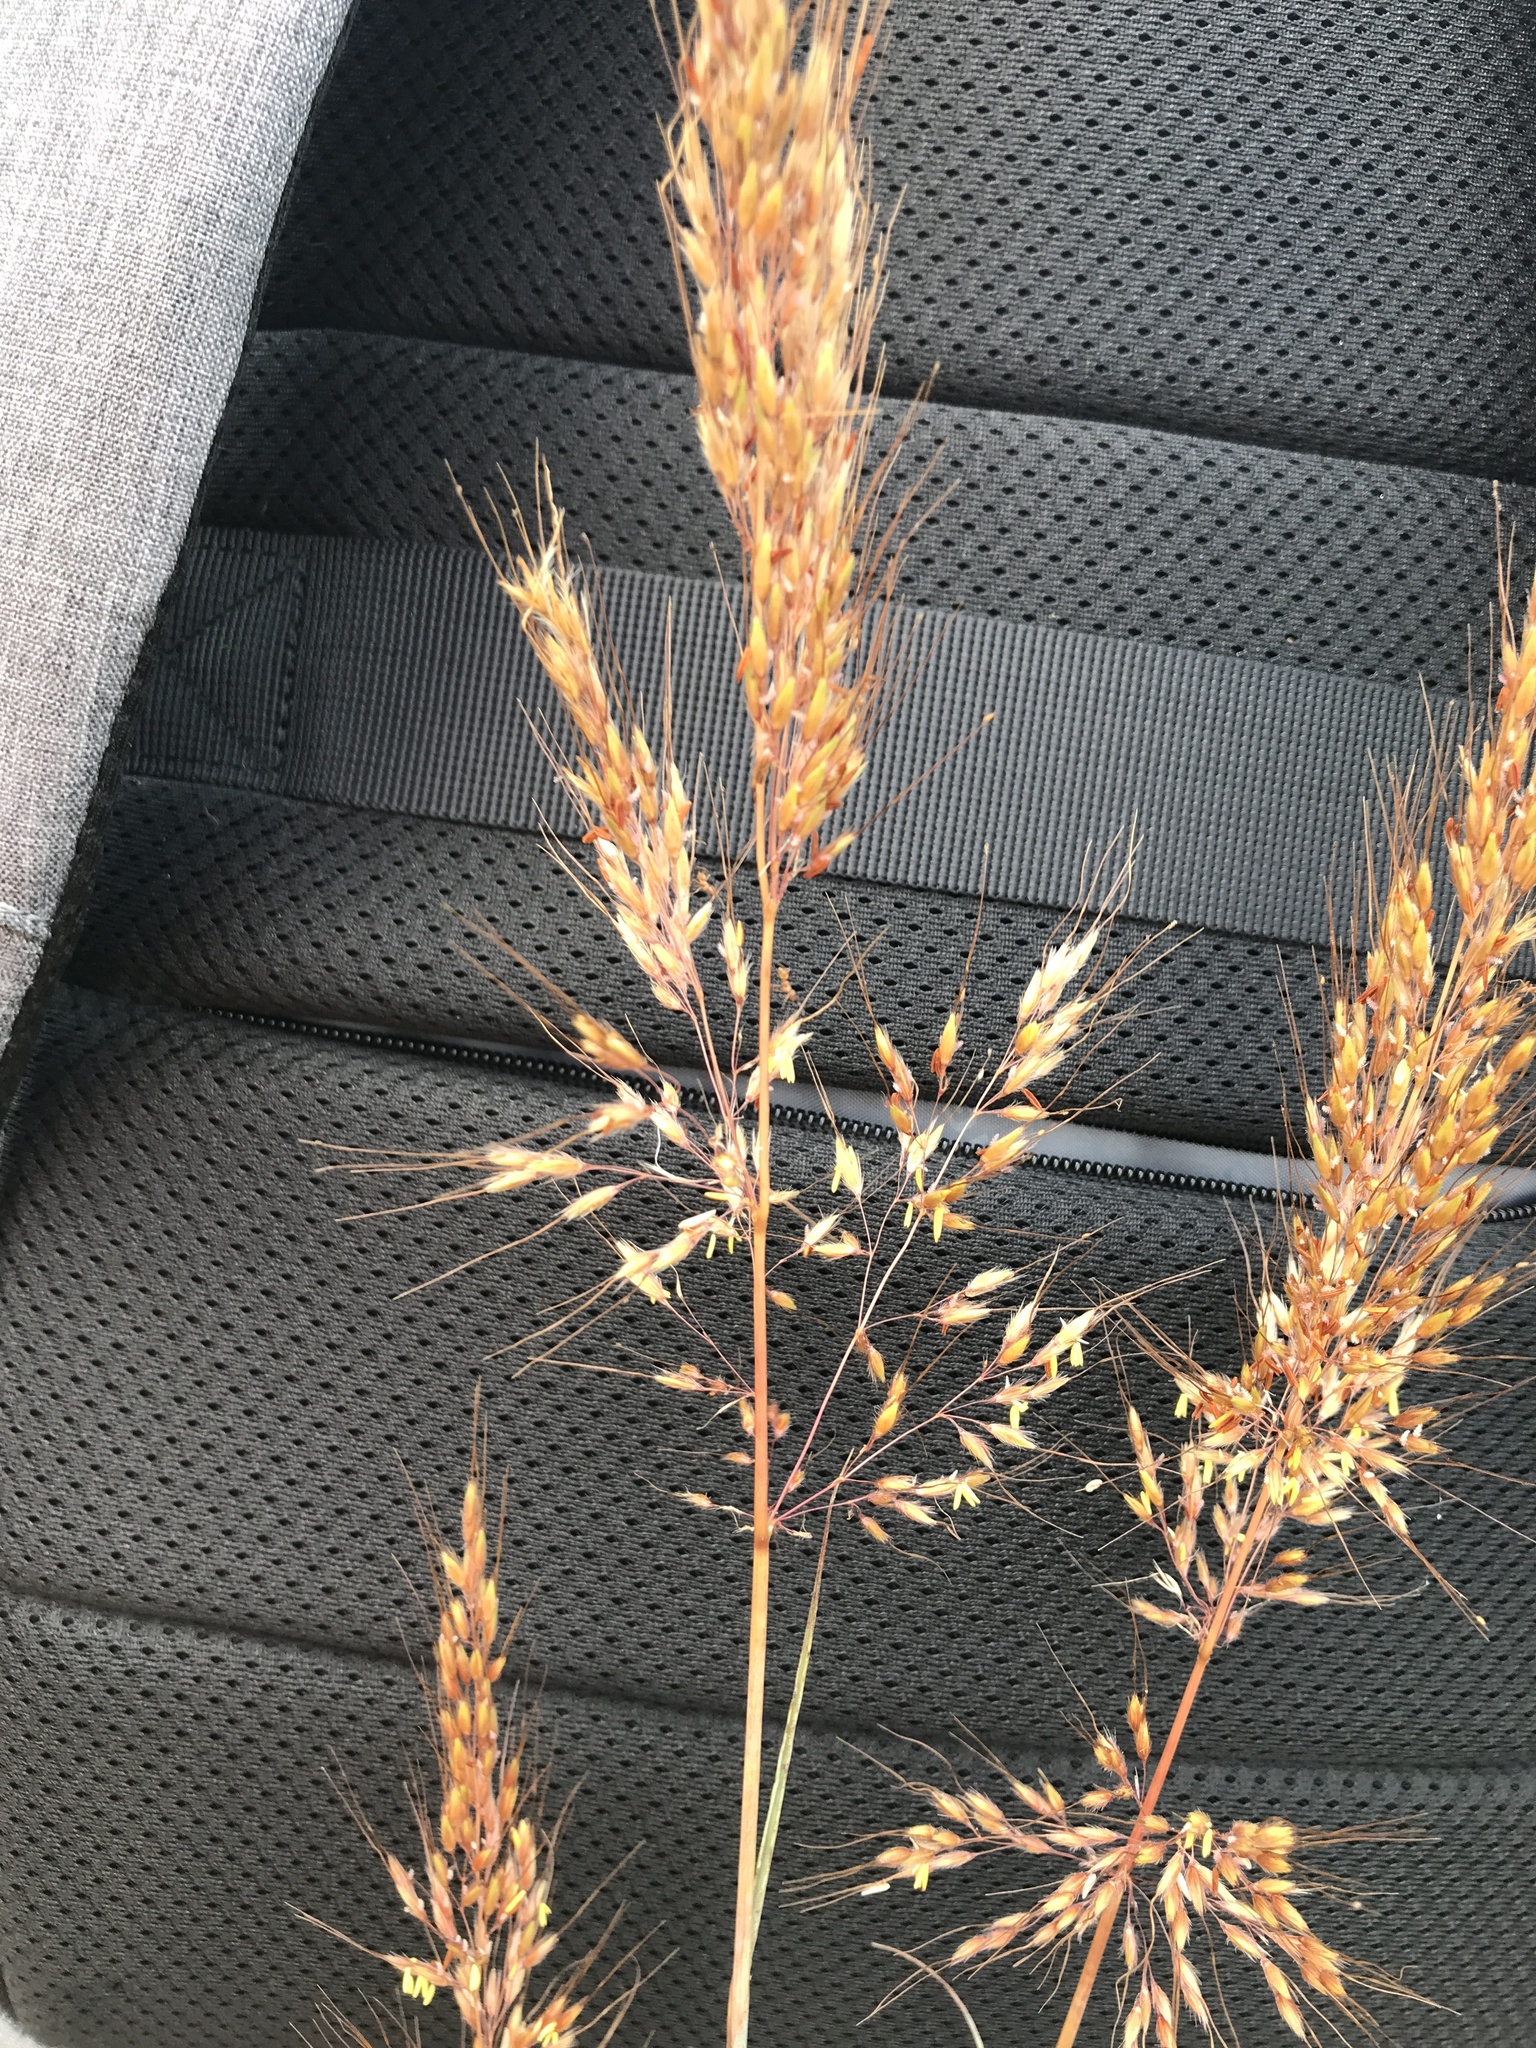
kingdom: Plantae
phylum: Tracheophyta
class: Liliopsida
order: Poales
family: Poaceae
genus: Sorghastrum
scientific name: Sorghastrum nutans
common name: Indian grass
